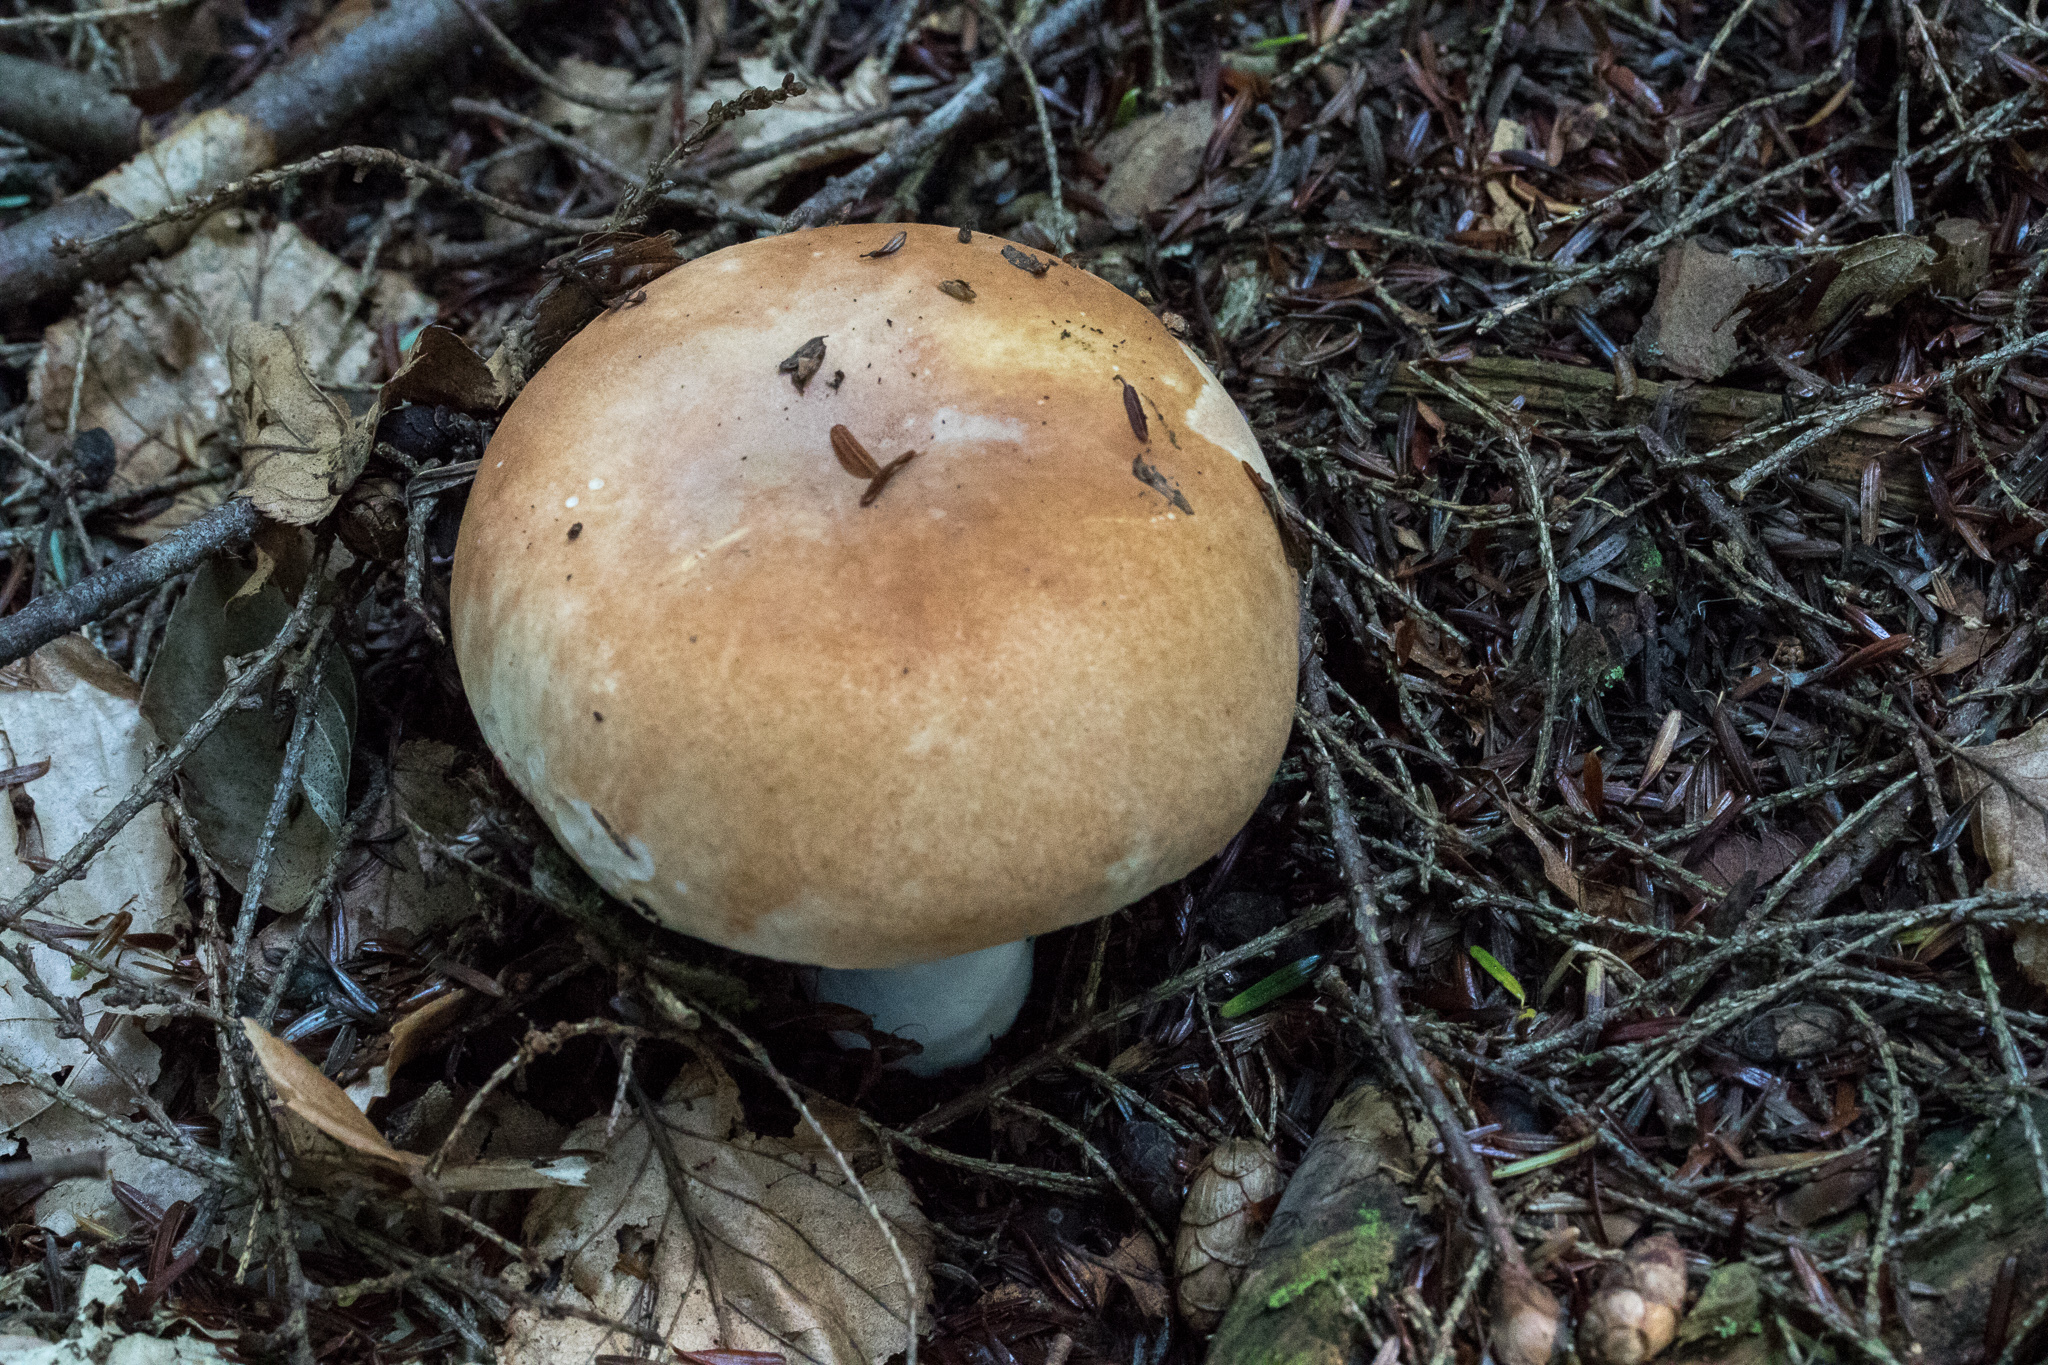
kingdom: Fungi
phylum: Basidiomycota
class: Agaricomycetes
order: Russulales
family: Russulaceae
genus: Russula
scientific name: Russula compacta
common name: Fishbiscuit russula
